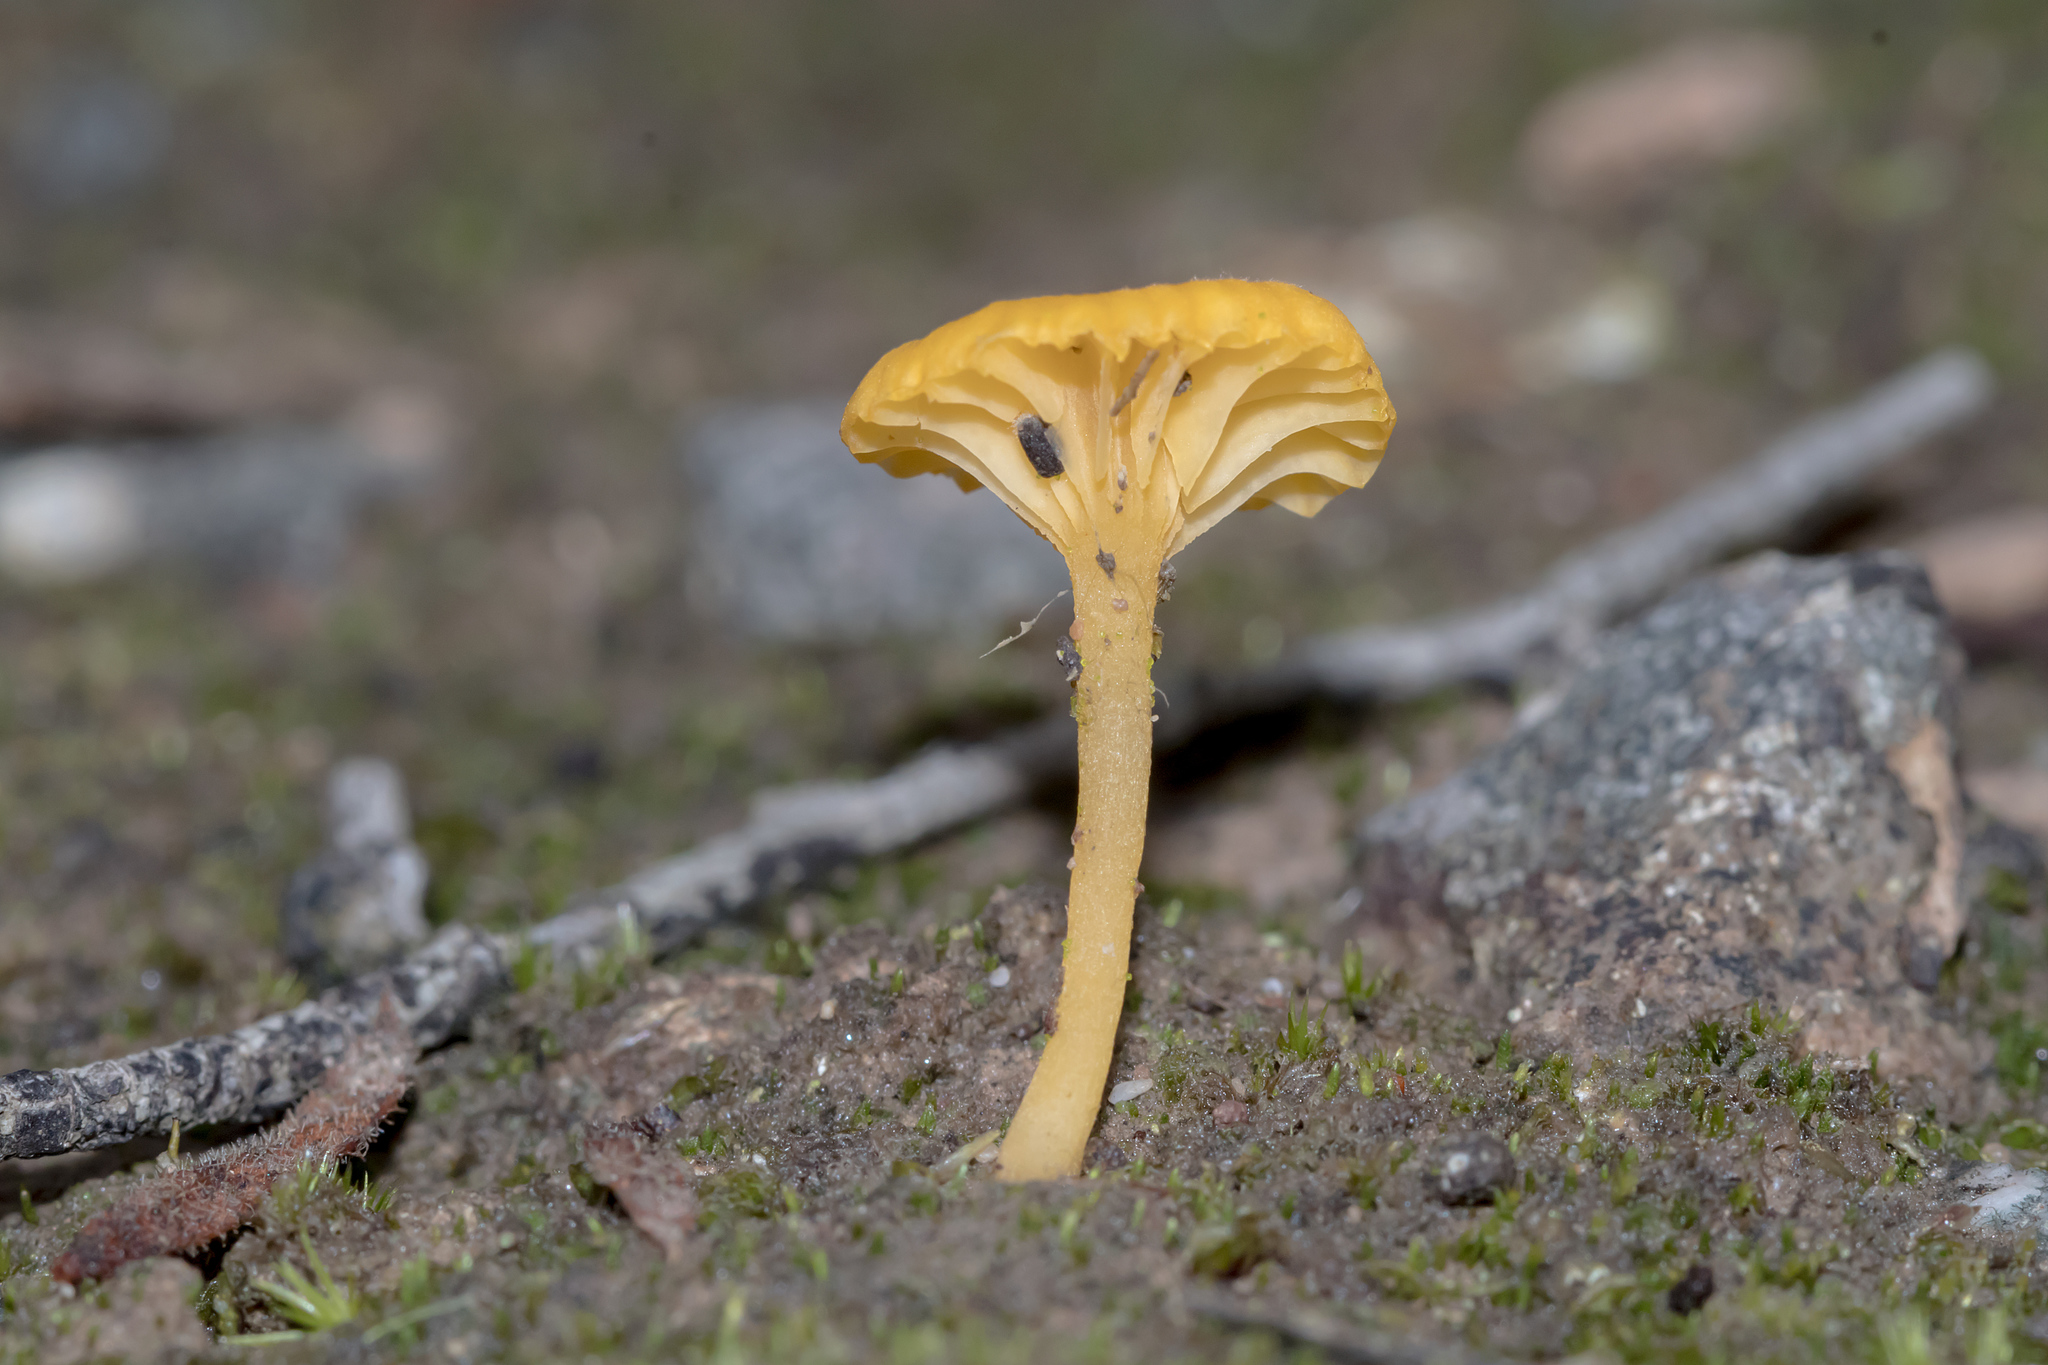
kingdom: Fungi
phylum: Basidiomycota
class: Agaricomycetes
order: Agaricales
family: Hygrophoraceae
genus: Lichenomphalia
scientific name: Lichenomphalia chromacea
